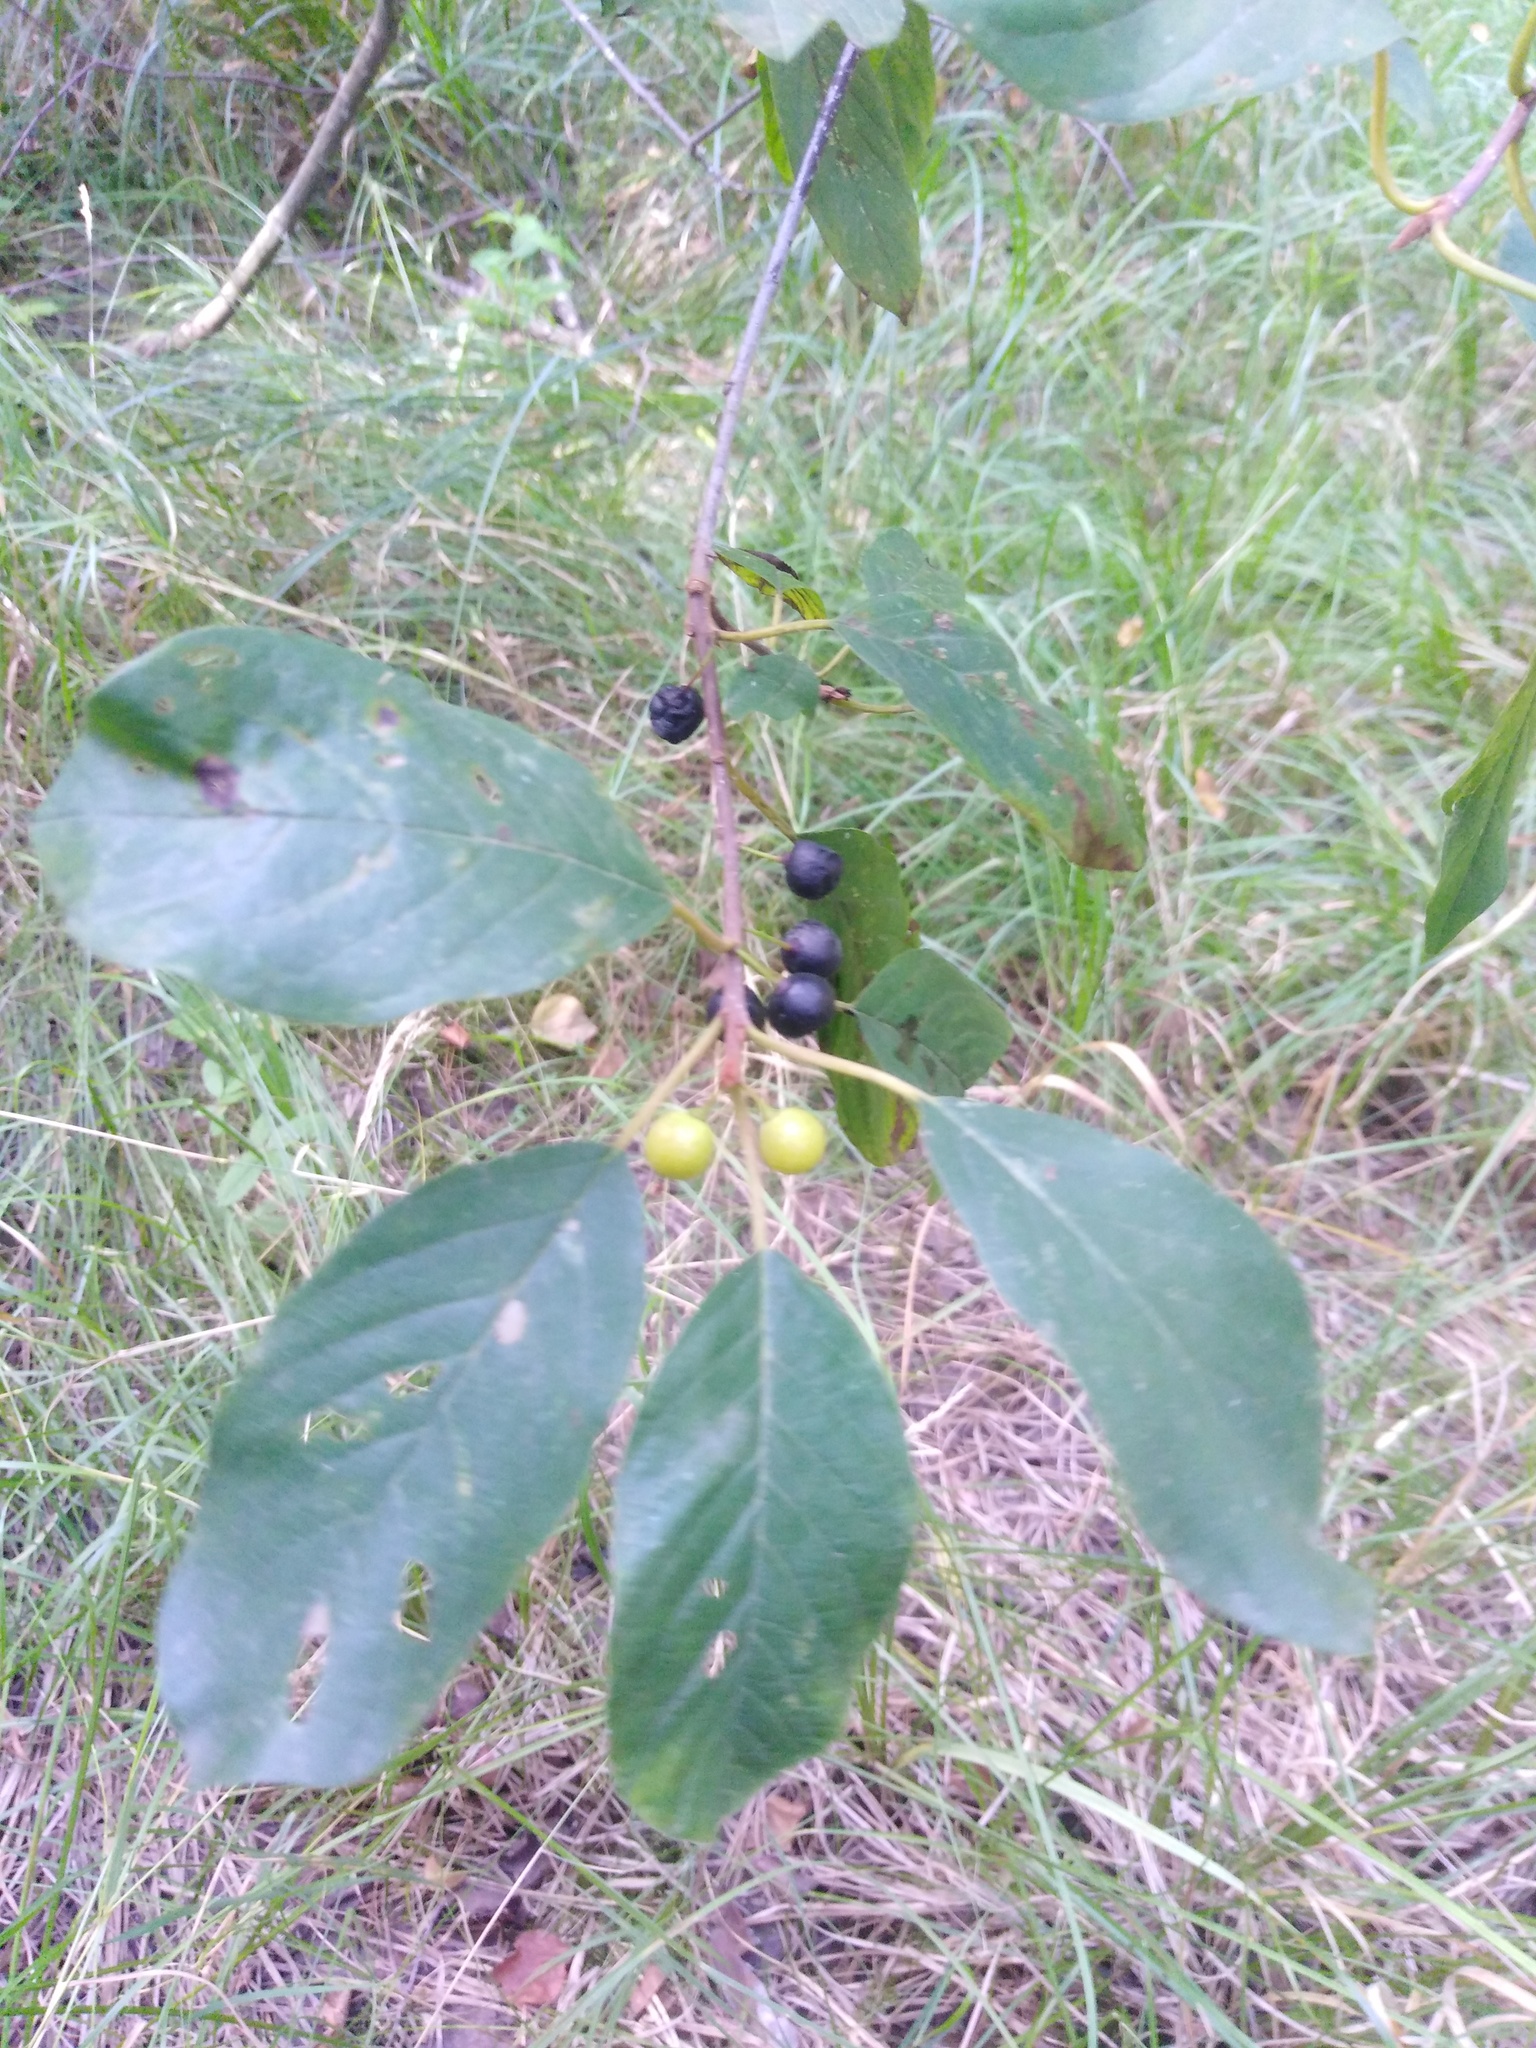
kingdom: Plantae
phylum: Tracheophyta
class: Magnoliopsida
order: Rosales
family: Rhamnaceae
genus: Frangula
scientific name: Frangula alnus
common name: Alder buckthorn
